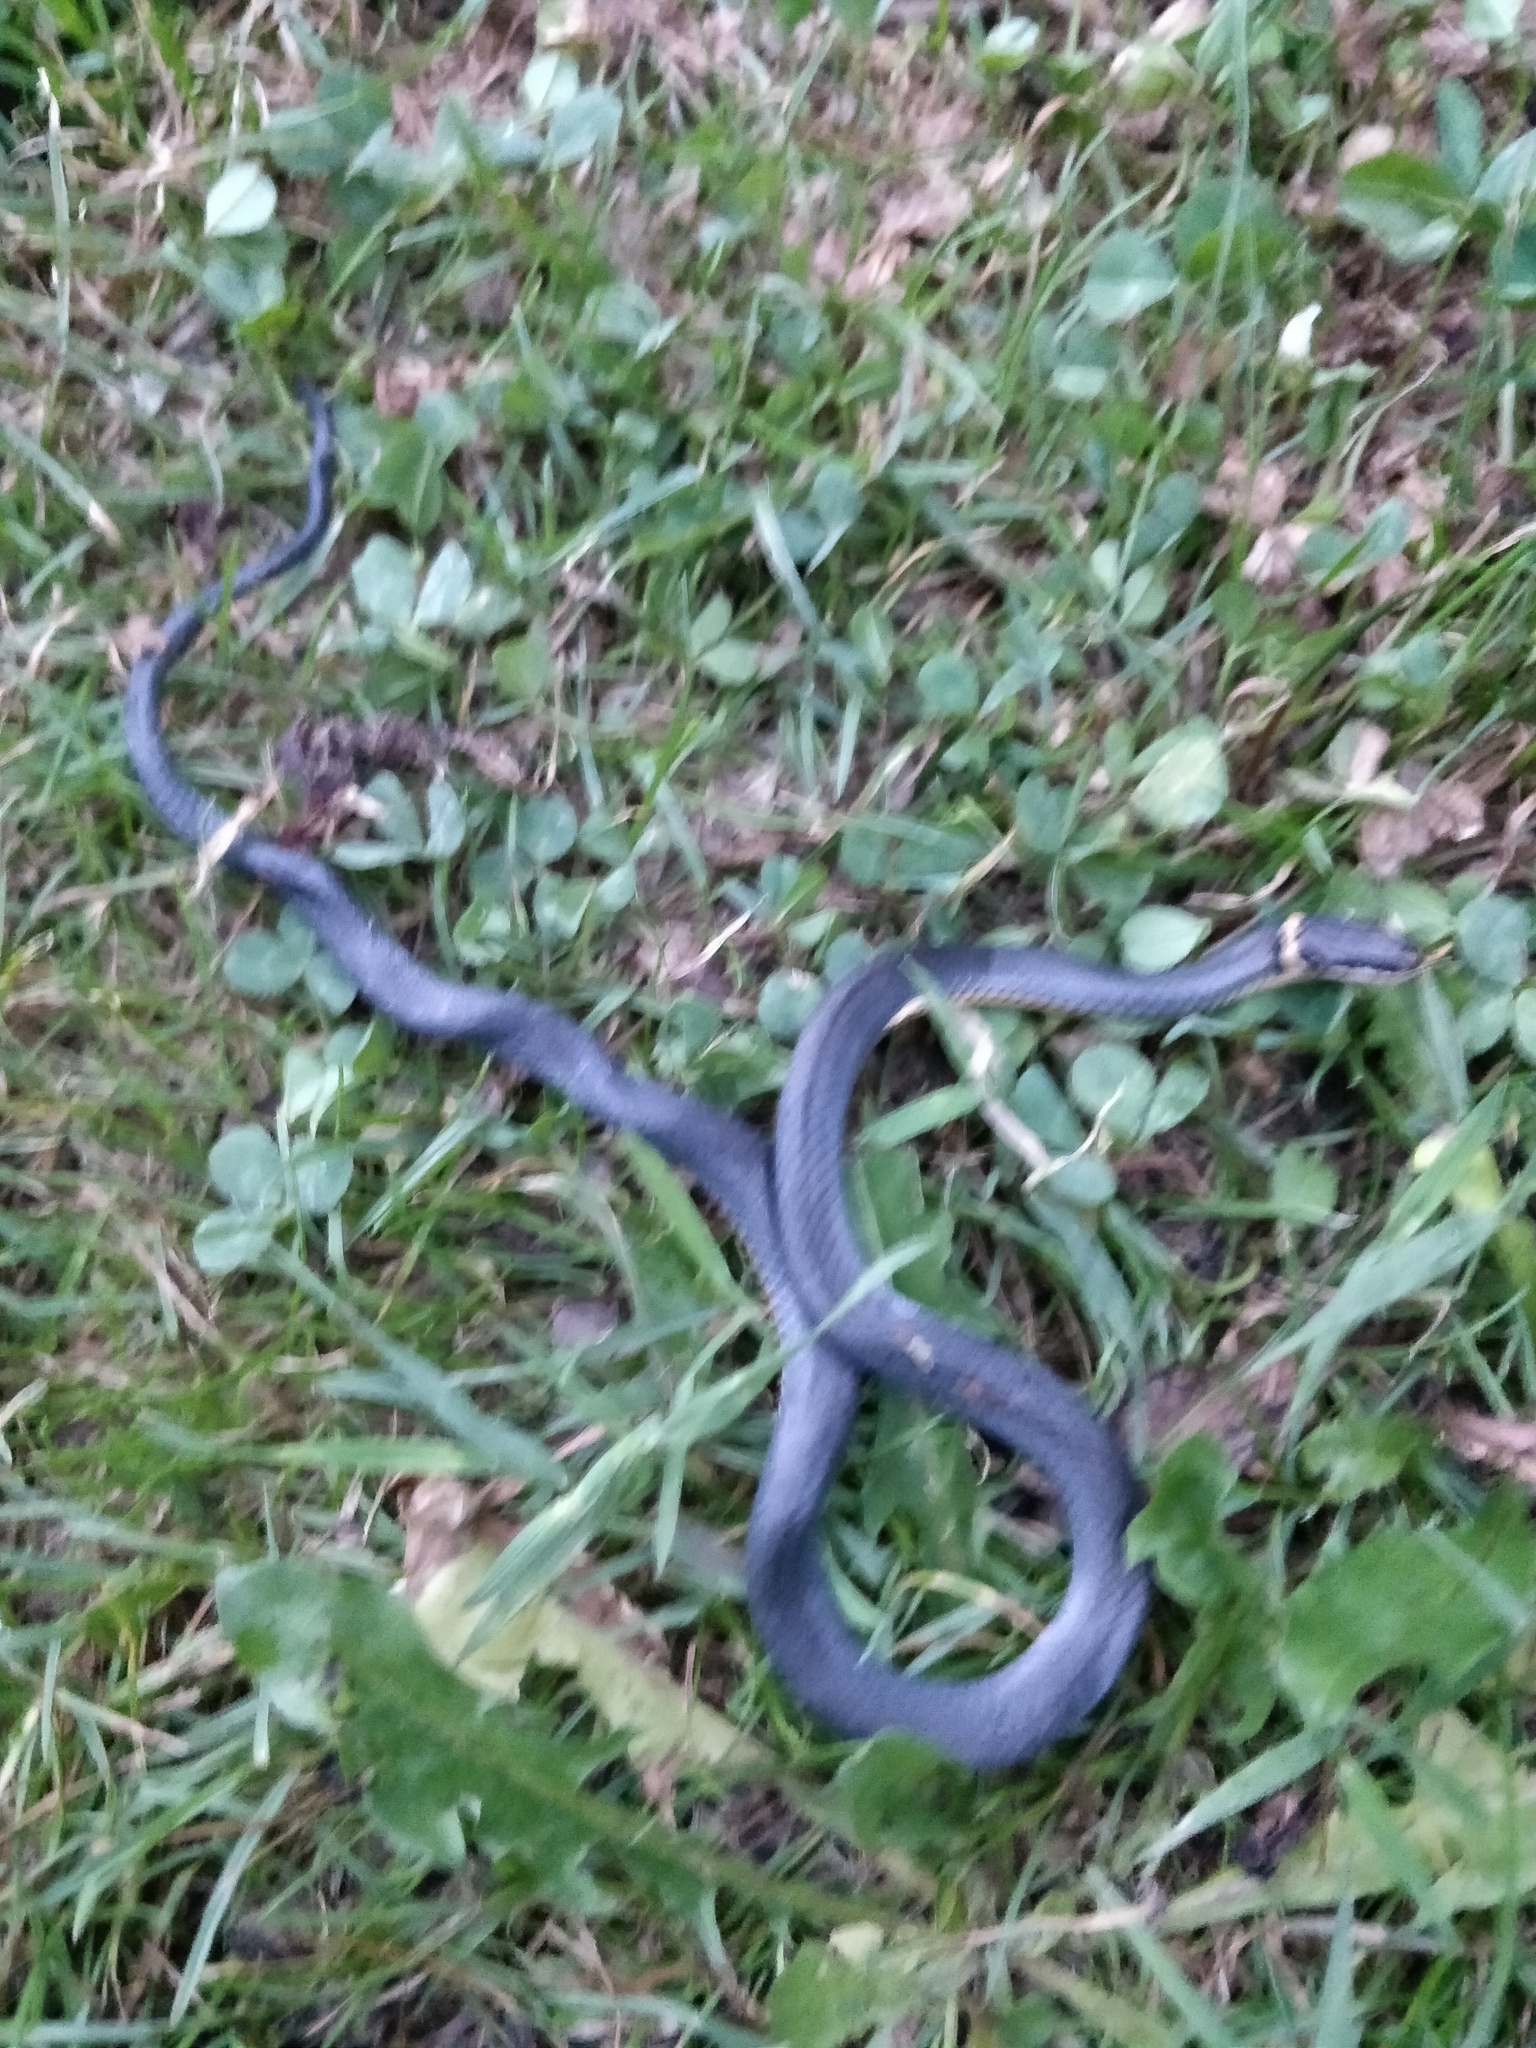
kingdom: Animalia
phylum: Chordata
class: Squamata
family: Colubridae
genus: Diadophis
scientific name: Diadophis punctatus
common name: Ringneck snake
